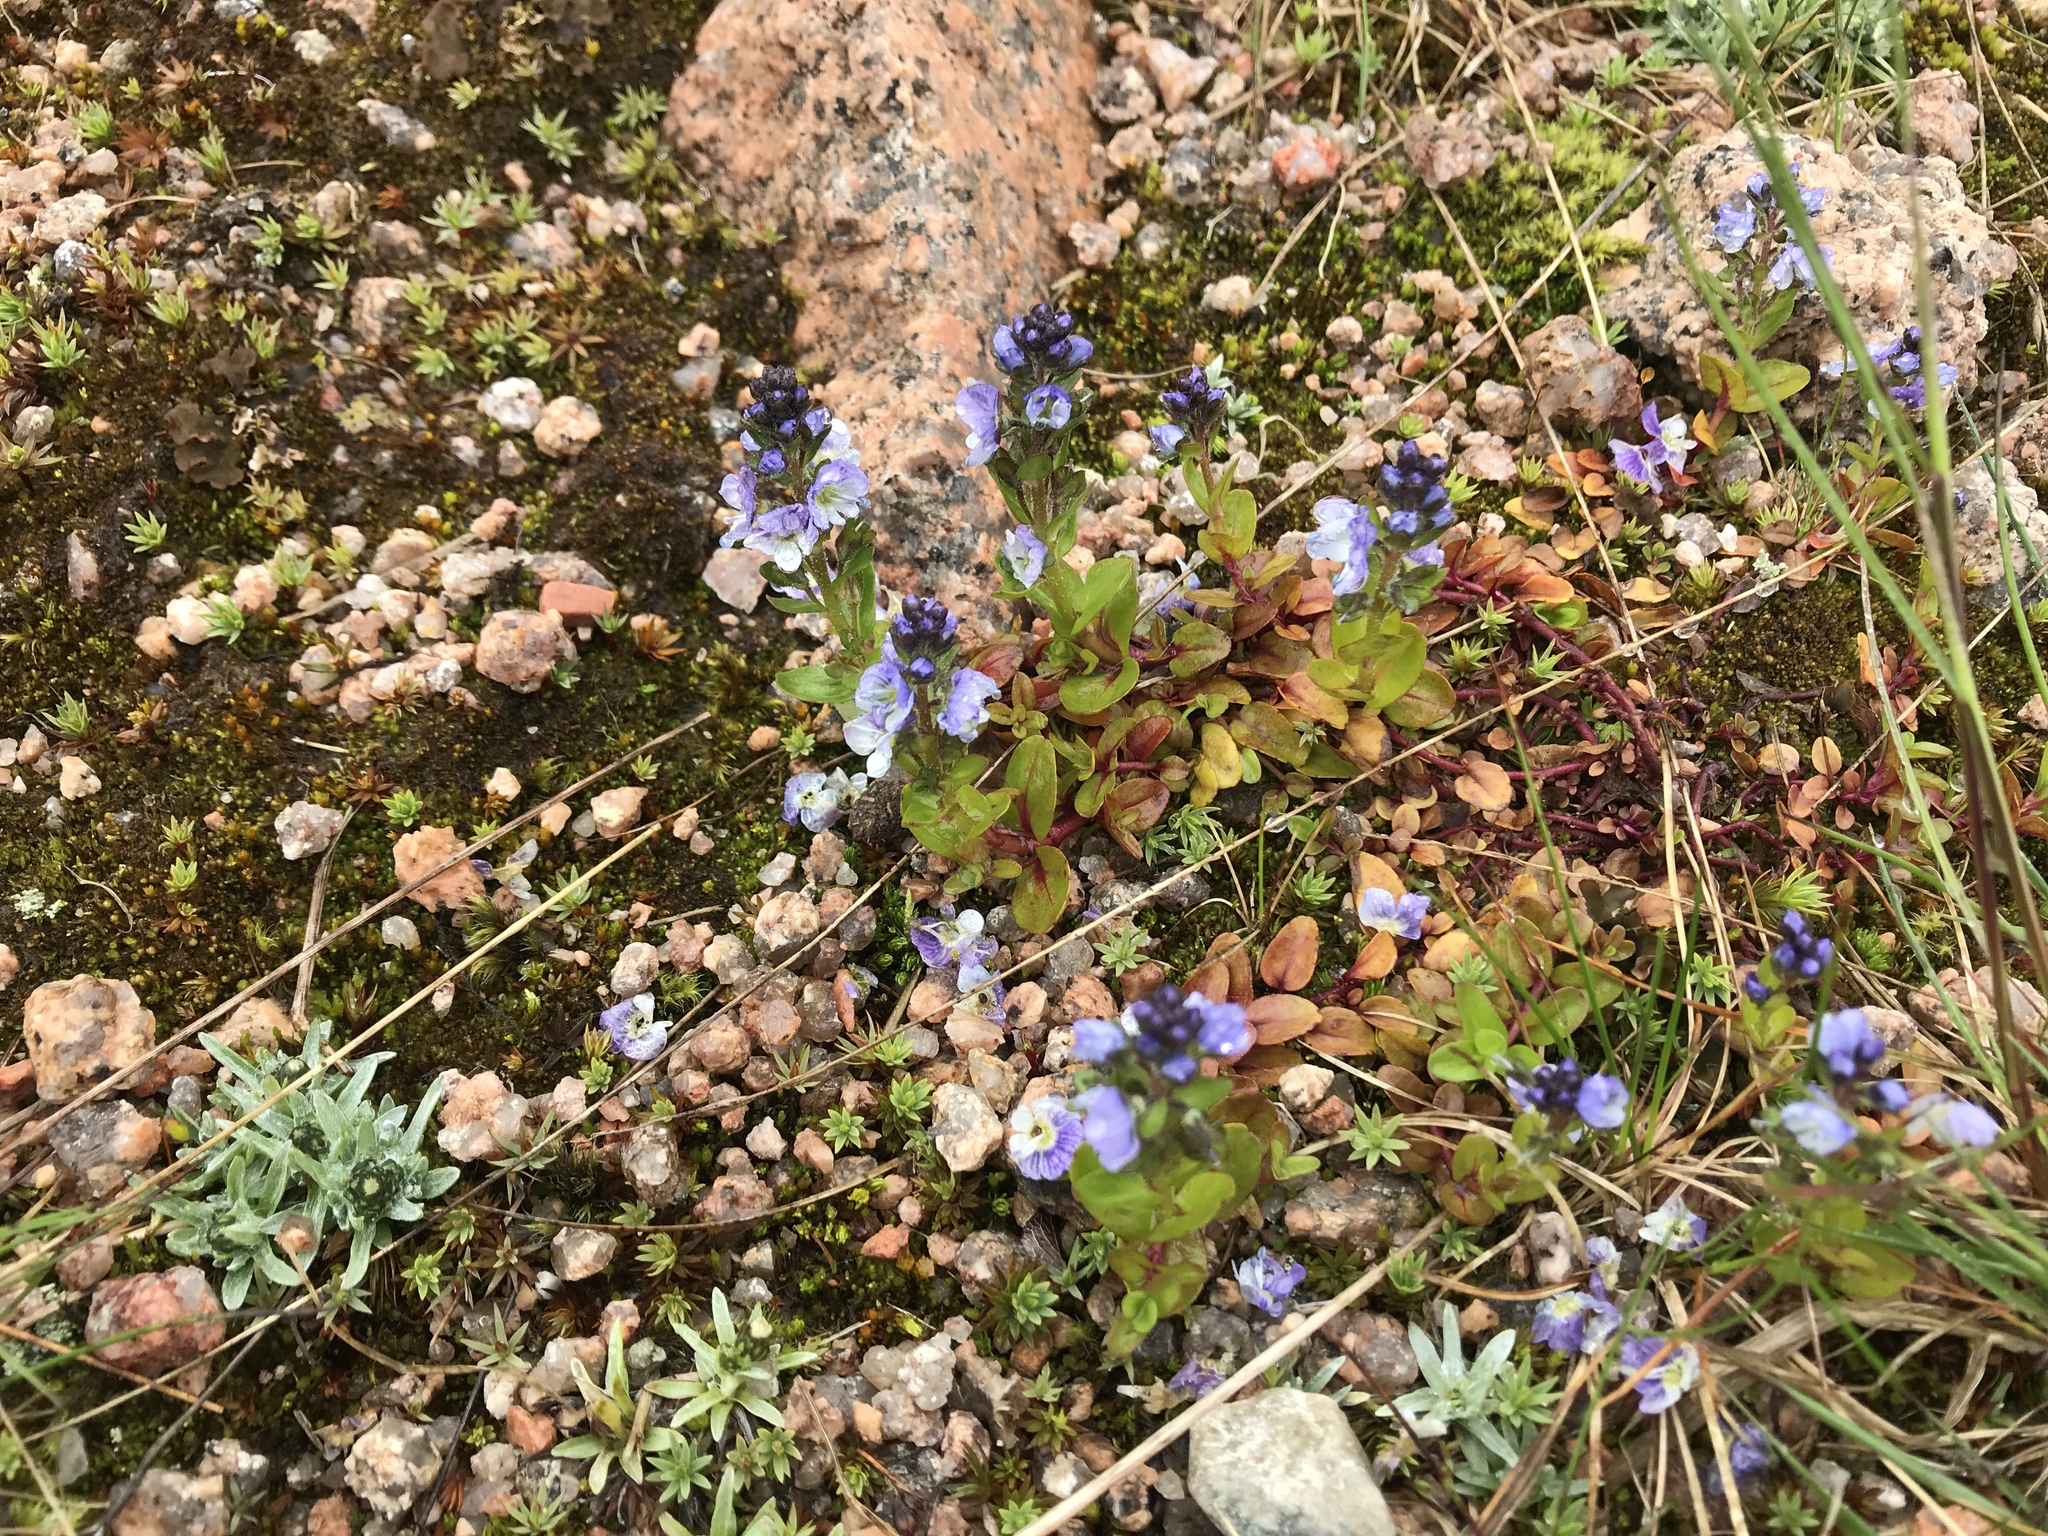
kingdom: Plantae
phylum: Tracheophyta
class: Magnoliopsida
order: Lamiales
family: Plantaginaceae
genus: Veronica
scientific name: Veronica serpyllifolia
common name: Thyme-leaved speedwell
